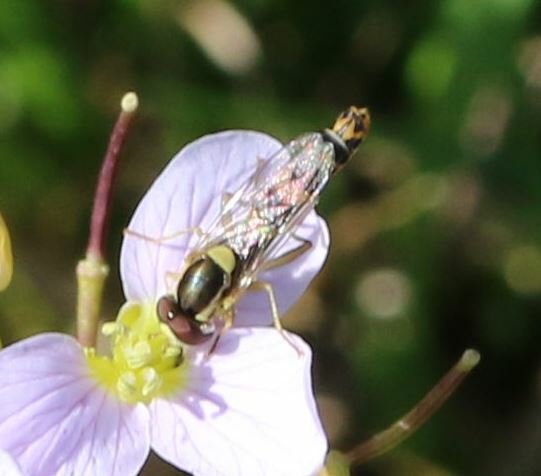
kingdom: Animalia
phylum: Arthropoda
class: Insecta
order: Diptera
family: Syrphidae
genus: Sphaerophoria
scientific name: Sphaerophoria scripta
